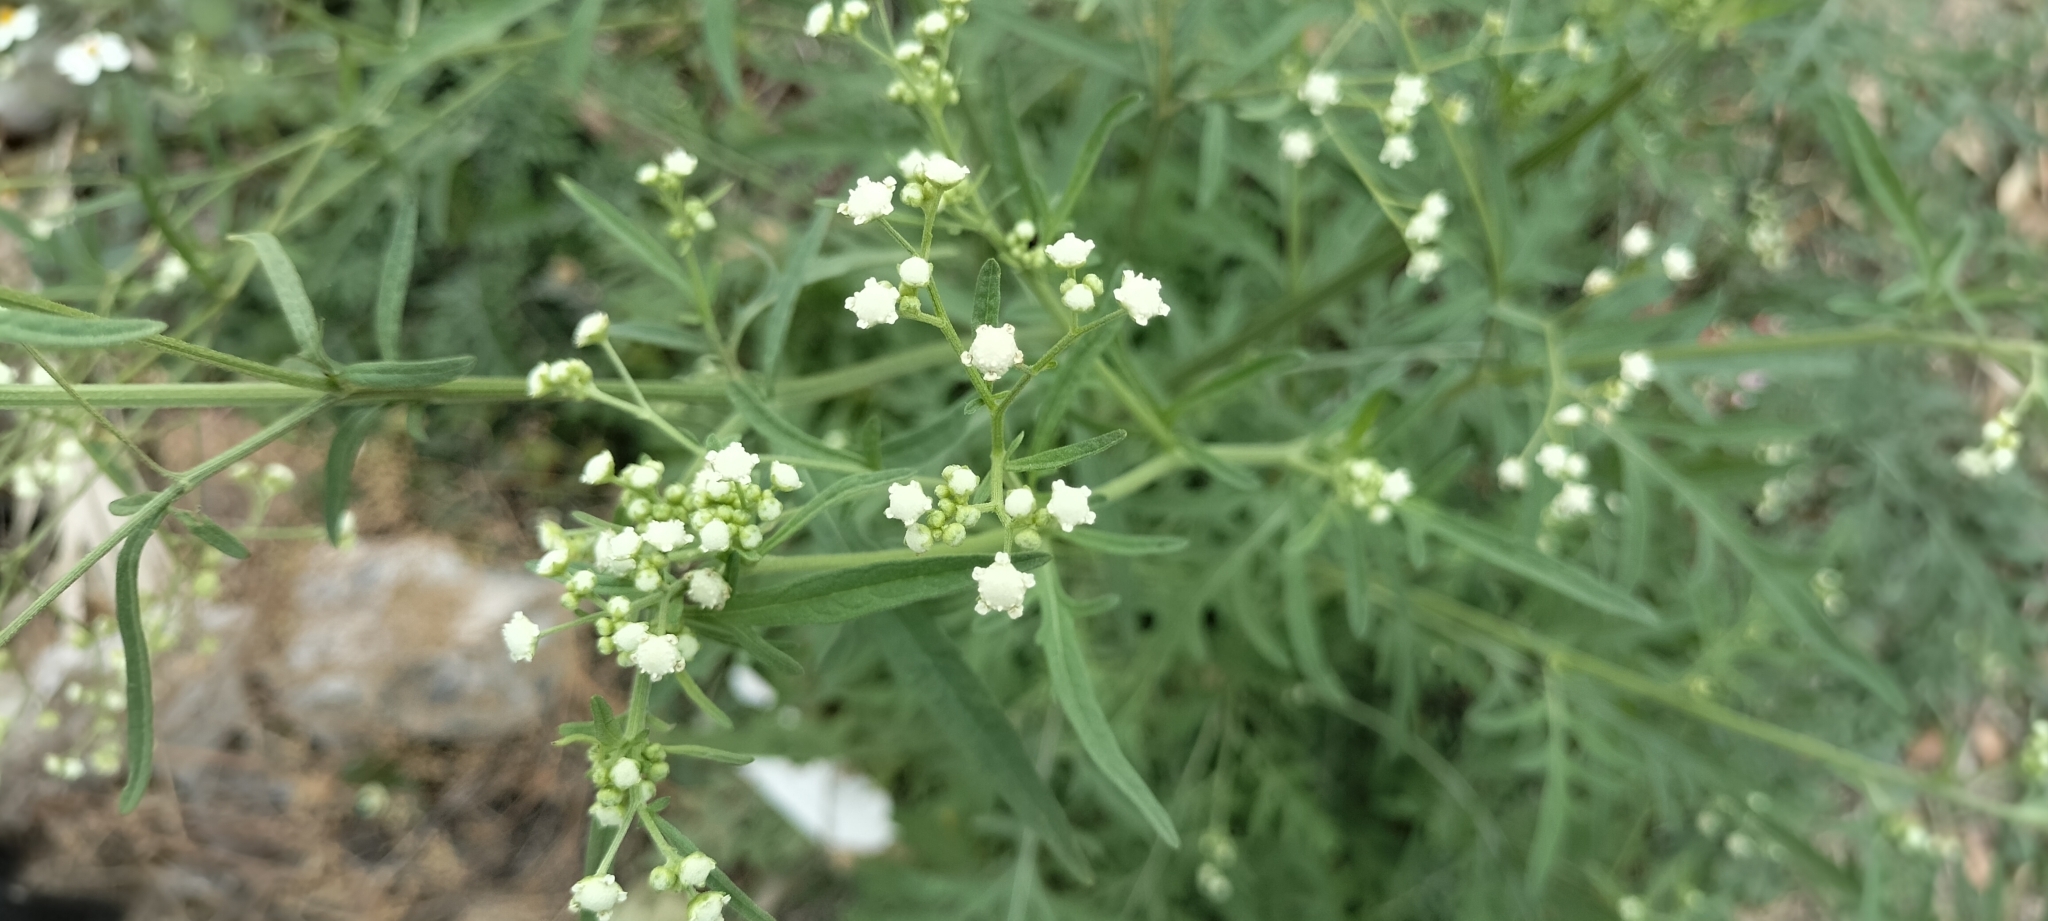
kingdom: Plantae
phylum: Tracheophyta
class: Magnoliopsida
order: Asterales
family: Asteraceae
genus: Parthenium
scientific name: Parthenium hysterophorus
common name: Santa maria feverfew
